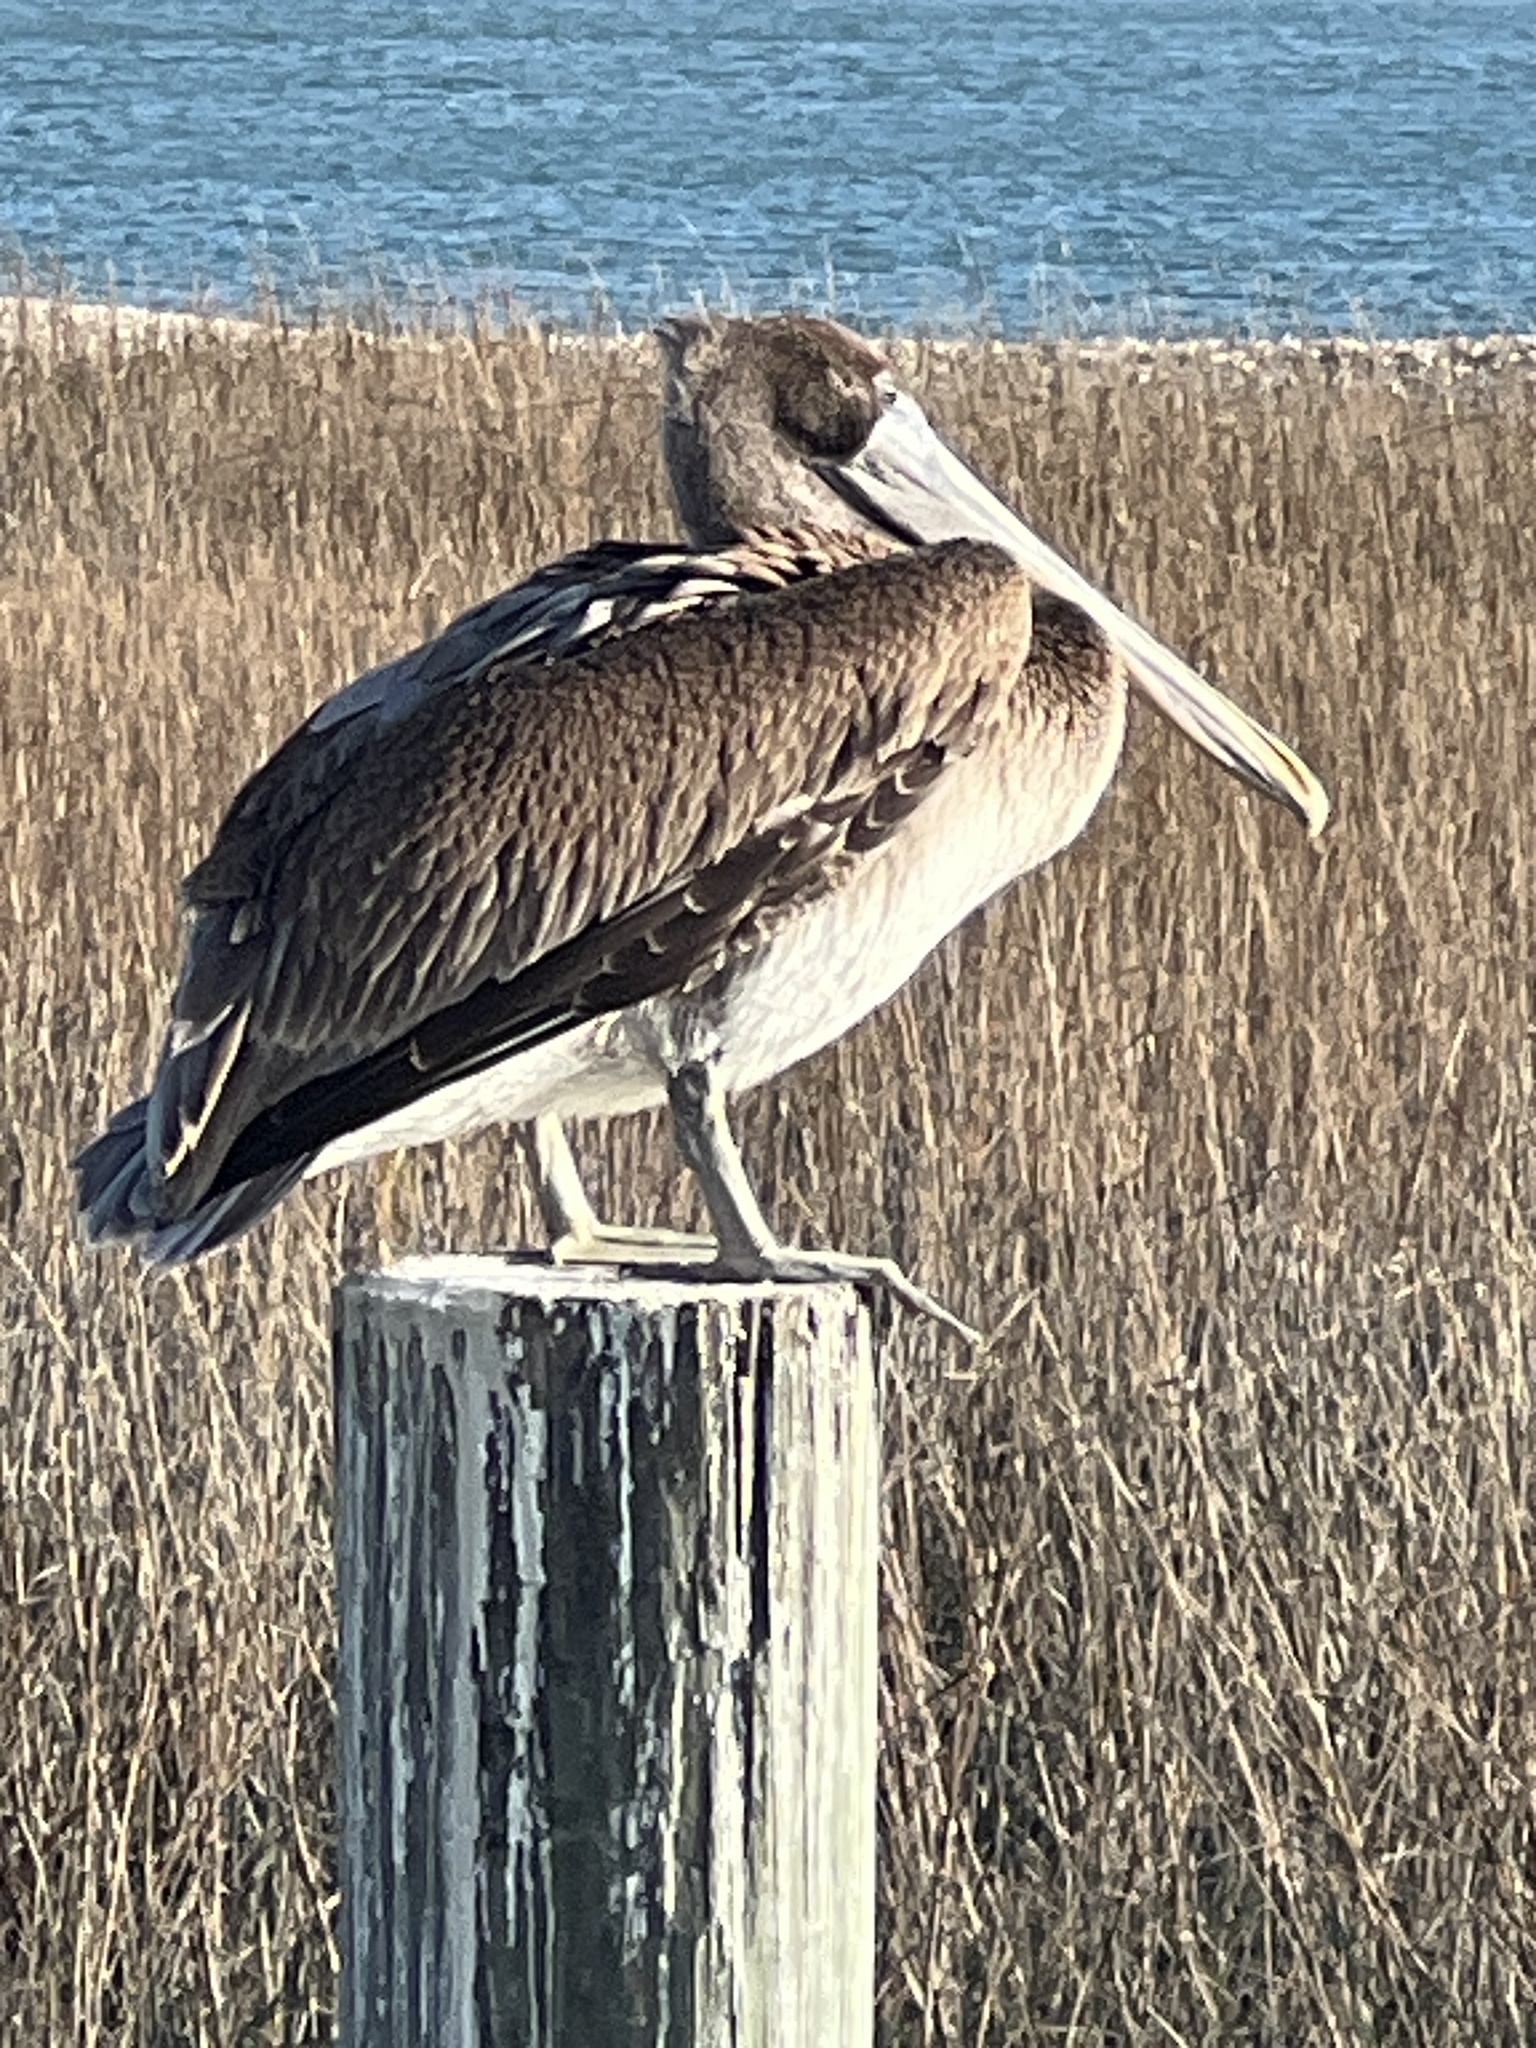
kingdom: Animalia
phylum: Chordata
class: Aves
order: Pelecaniformes
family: Pelecanidae
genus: Pelecanus
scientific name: Pelecanus occidentalis
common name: Brown pelican
